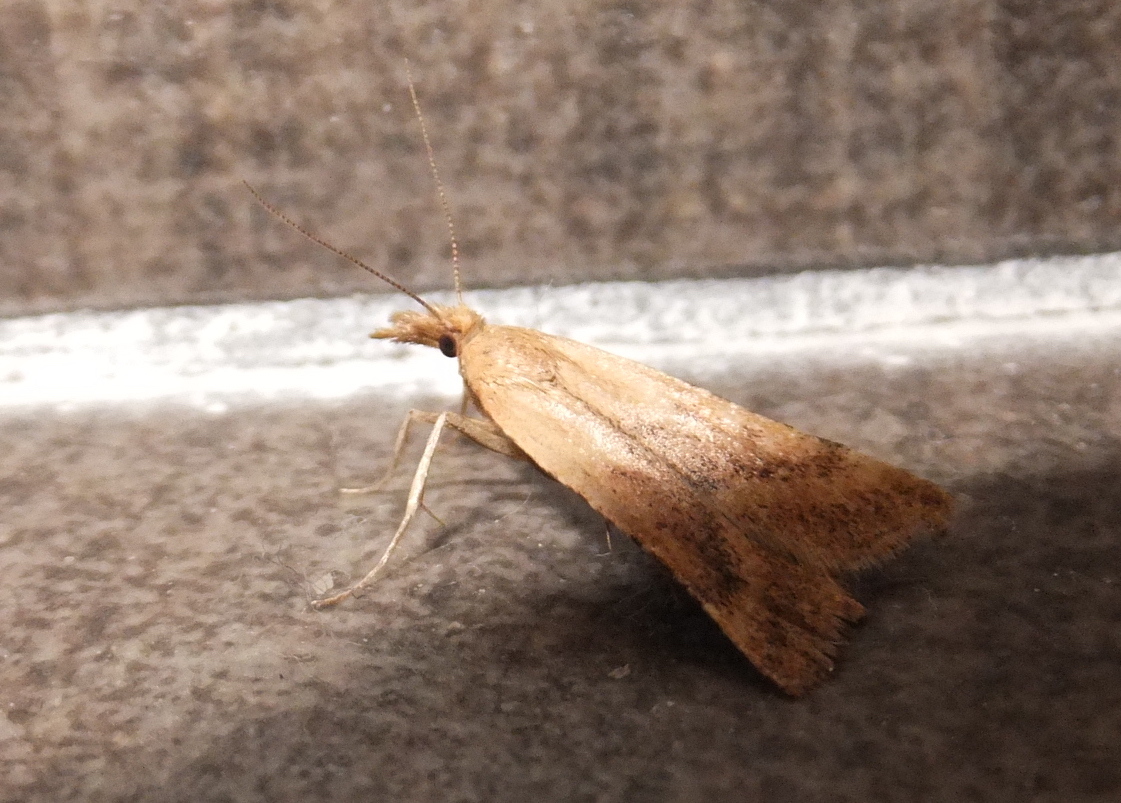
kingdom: Animalia
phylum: Arthropoda
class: Insecta
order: Lepidoptera
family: Pyralidae
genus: Synaphe
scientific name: Synaphe punctalis
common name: Long-legged tabby
